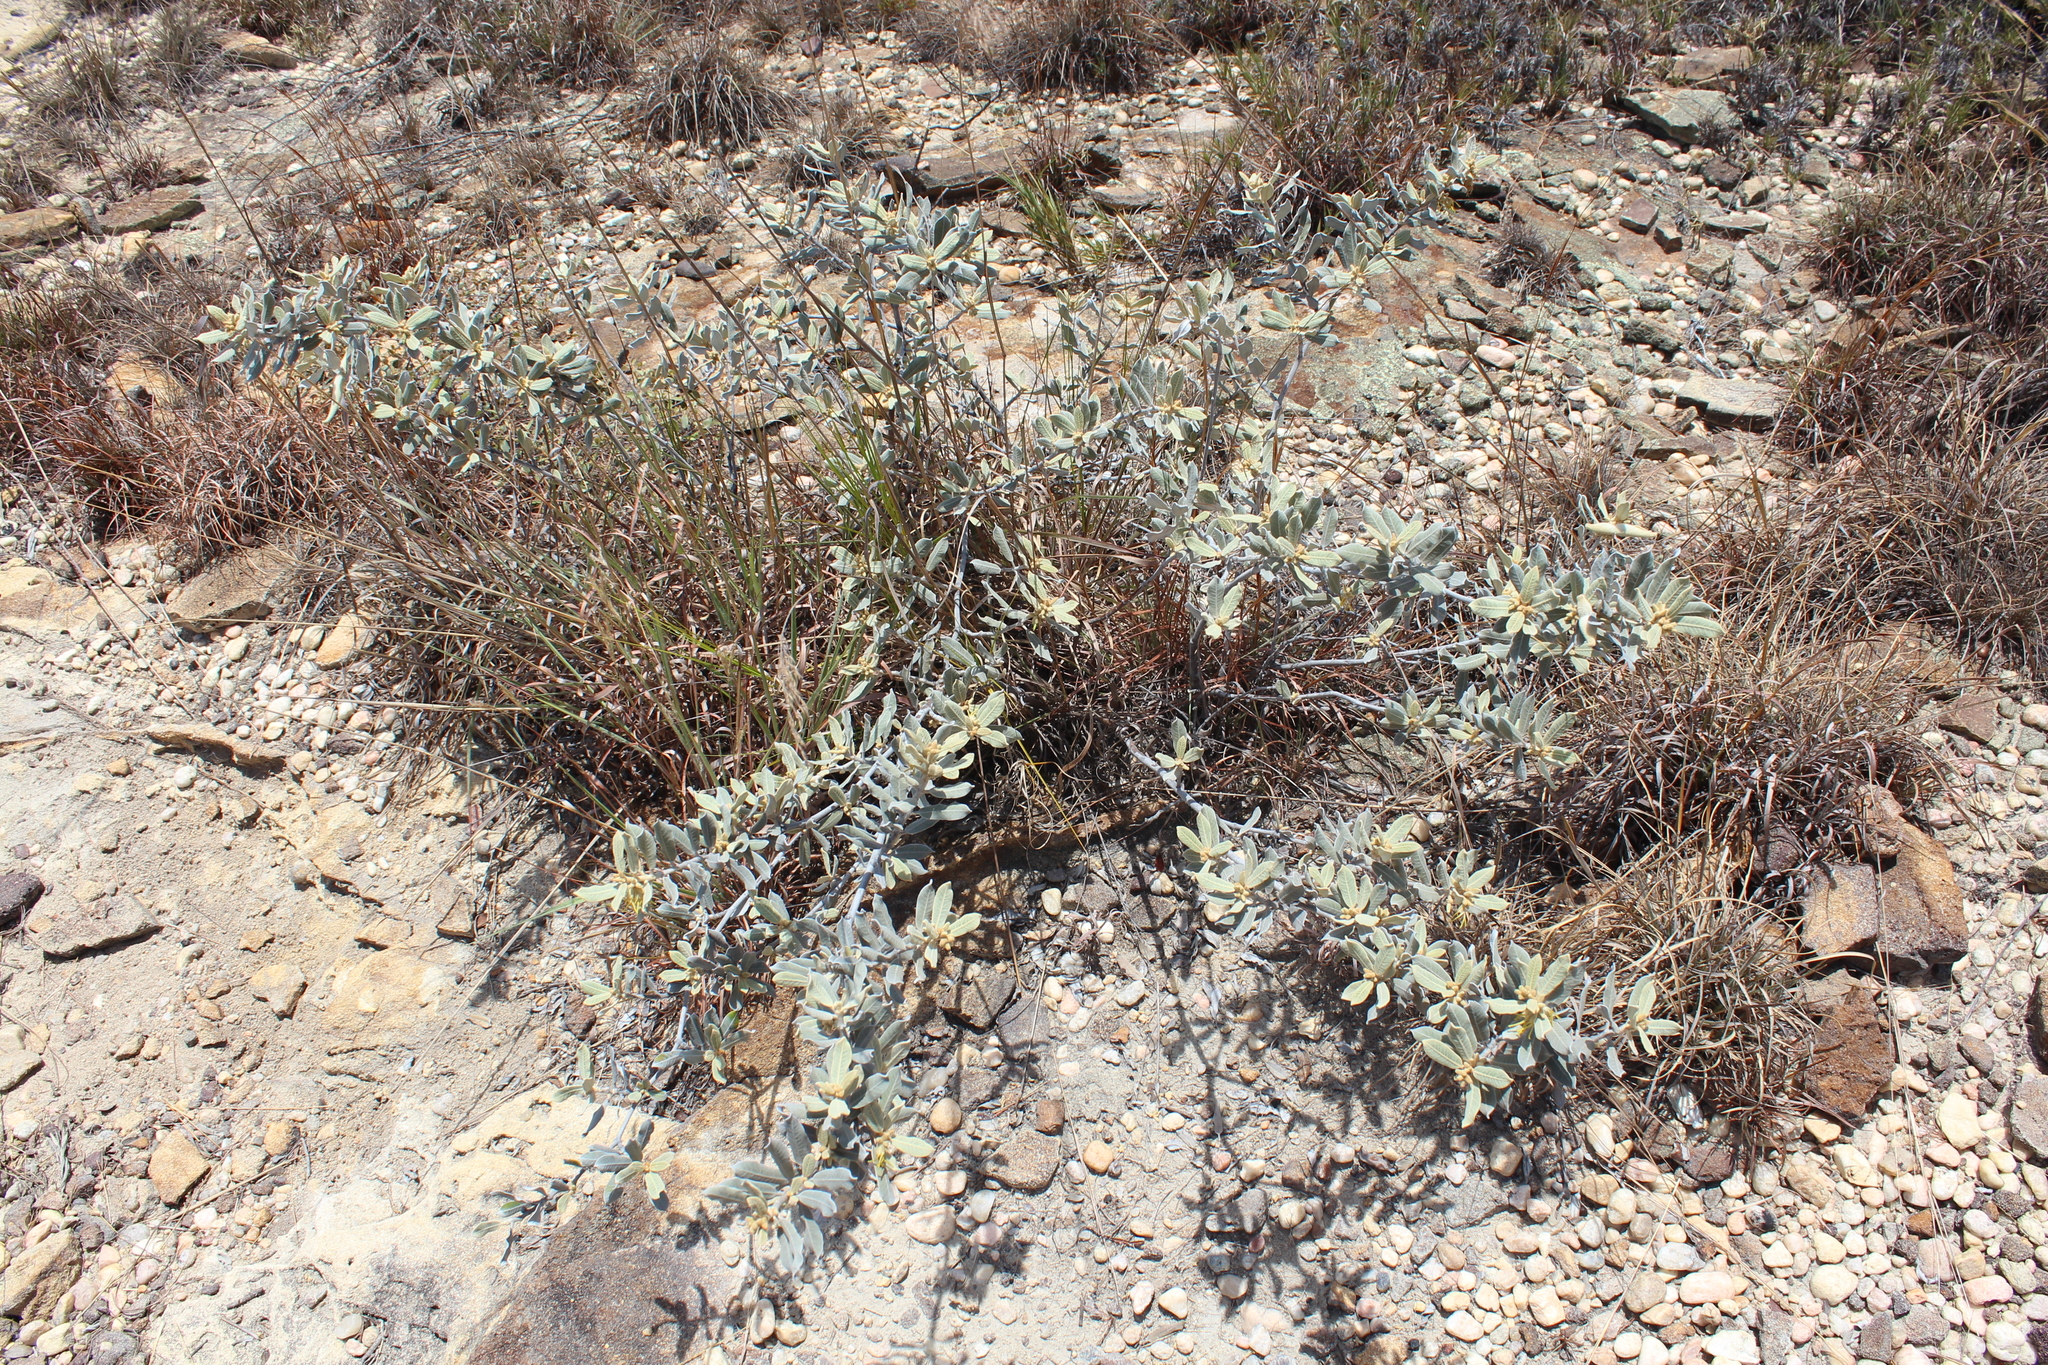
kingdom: Plantae
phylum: Tracheophyta
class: Magnoliopsida
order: Gentianales
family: Apocynaceae
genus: Pervillaea
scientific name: Pervillaea venenata
